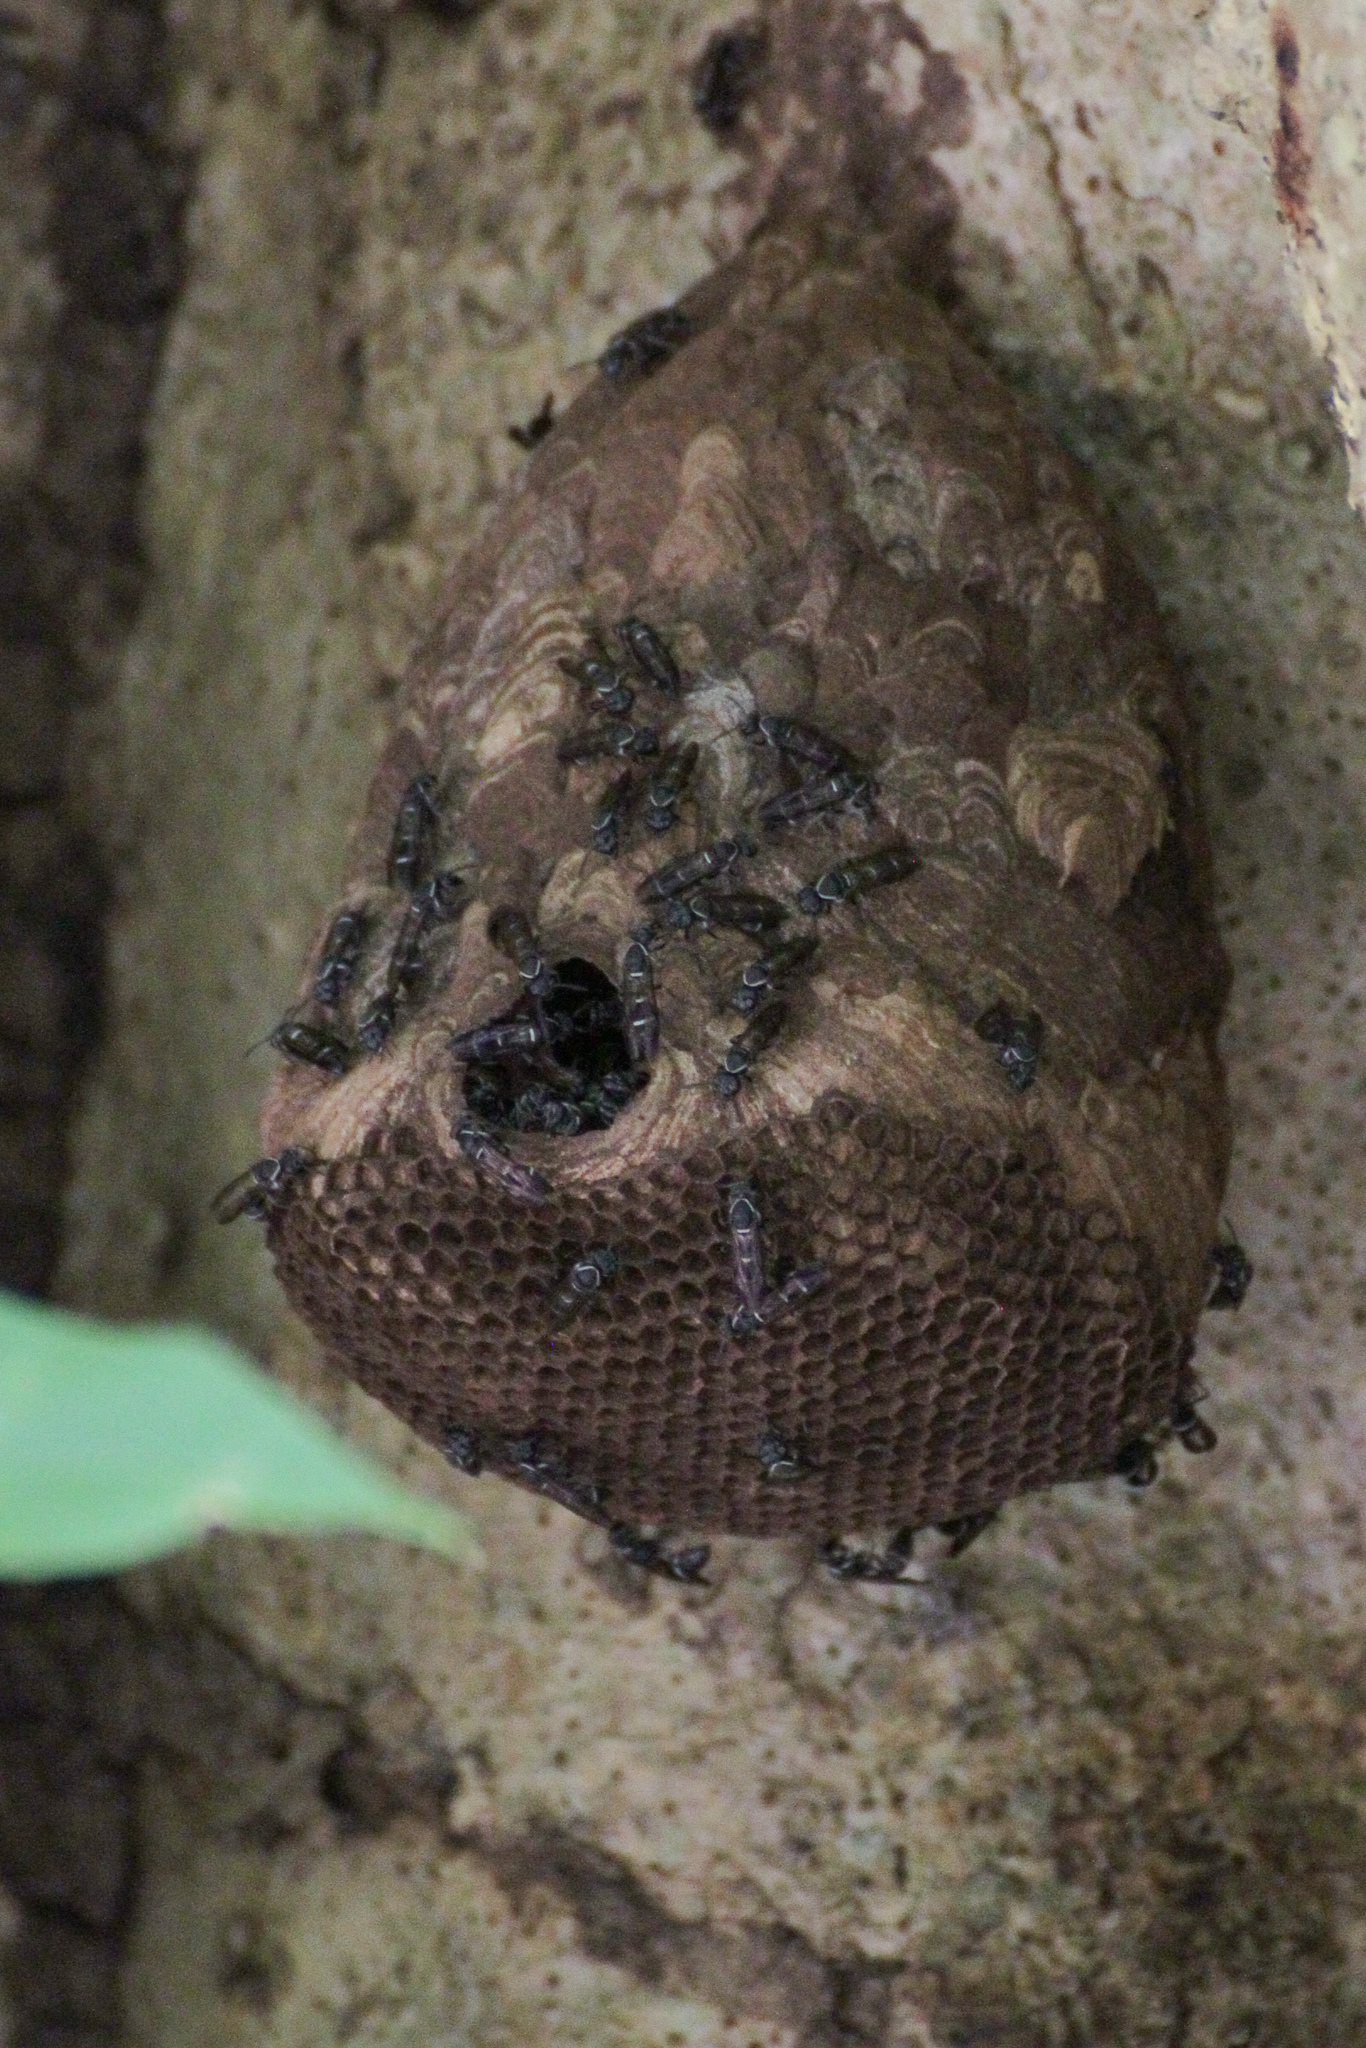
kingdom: Animalia
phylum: Arthropoda
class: Insecta
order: Hymenoptera
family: Eumenidae
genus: Polybia
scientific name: Polybia plebeja
